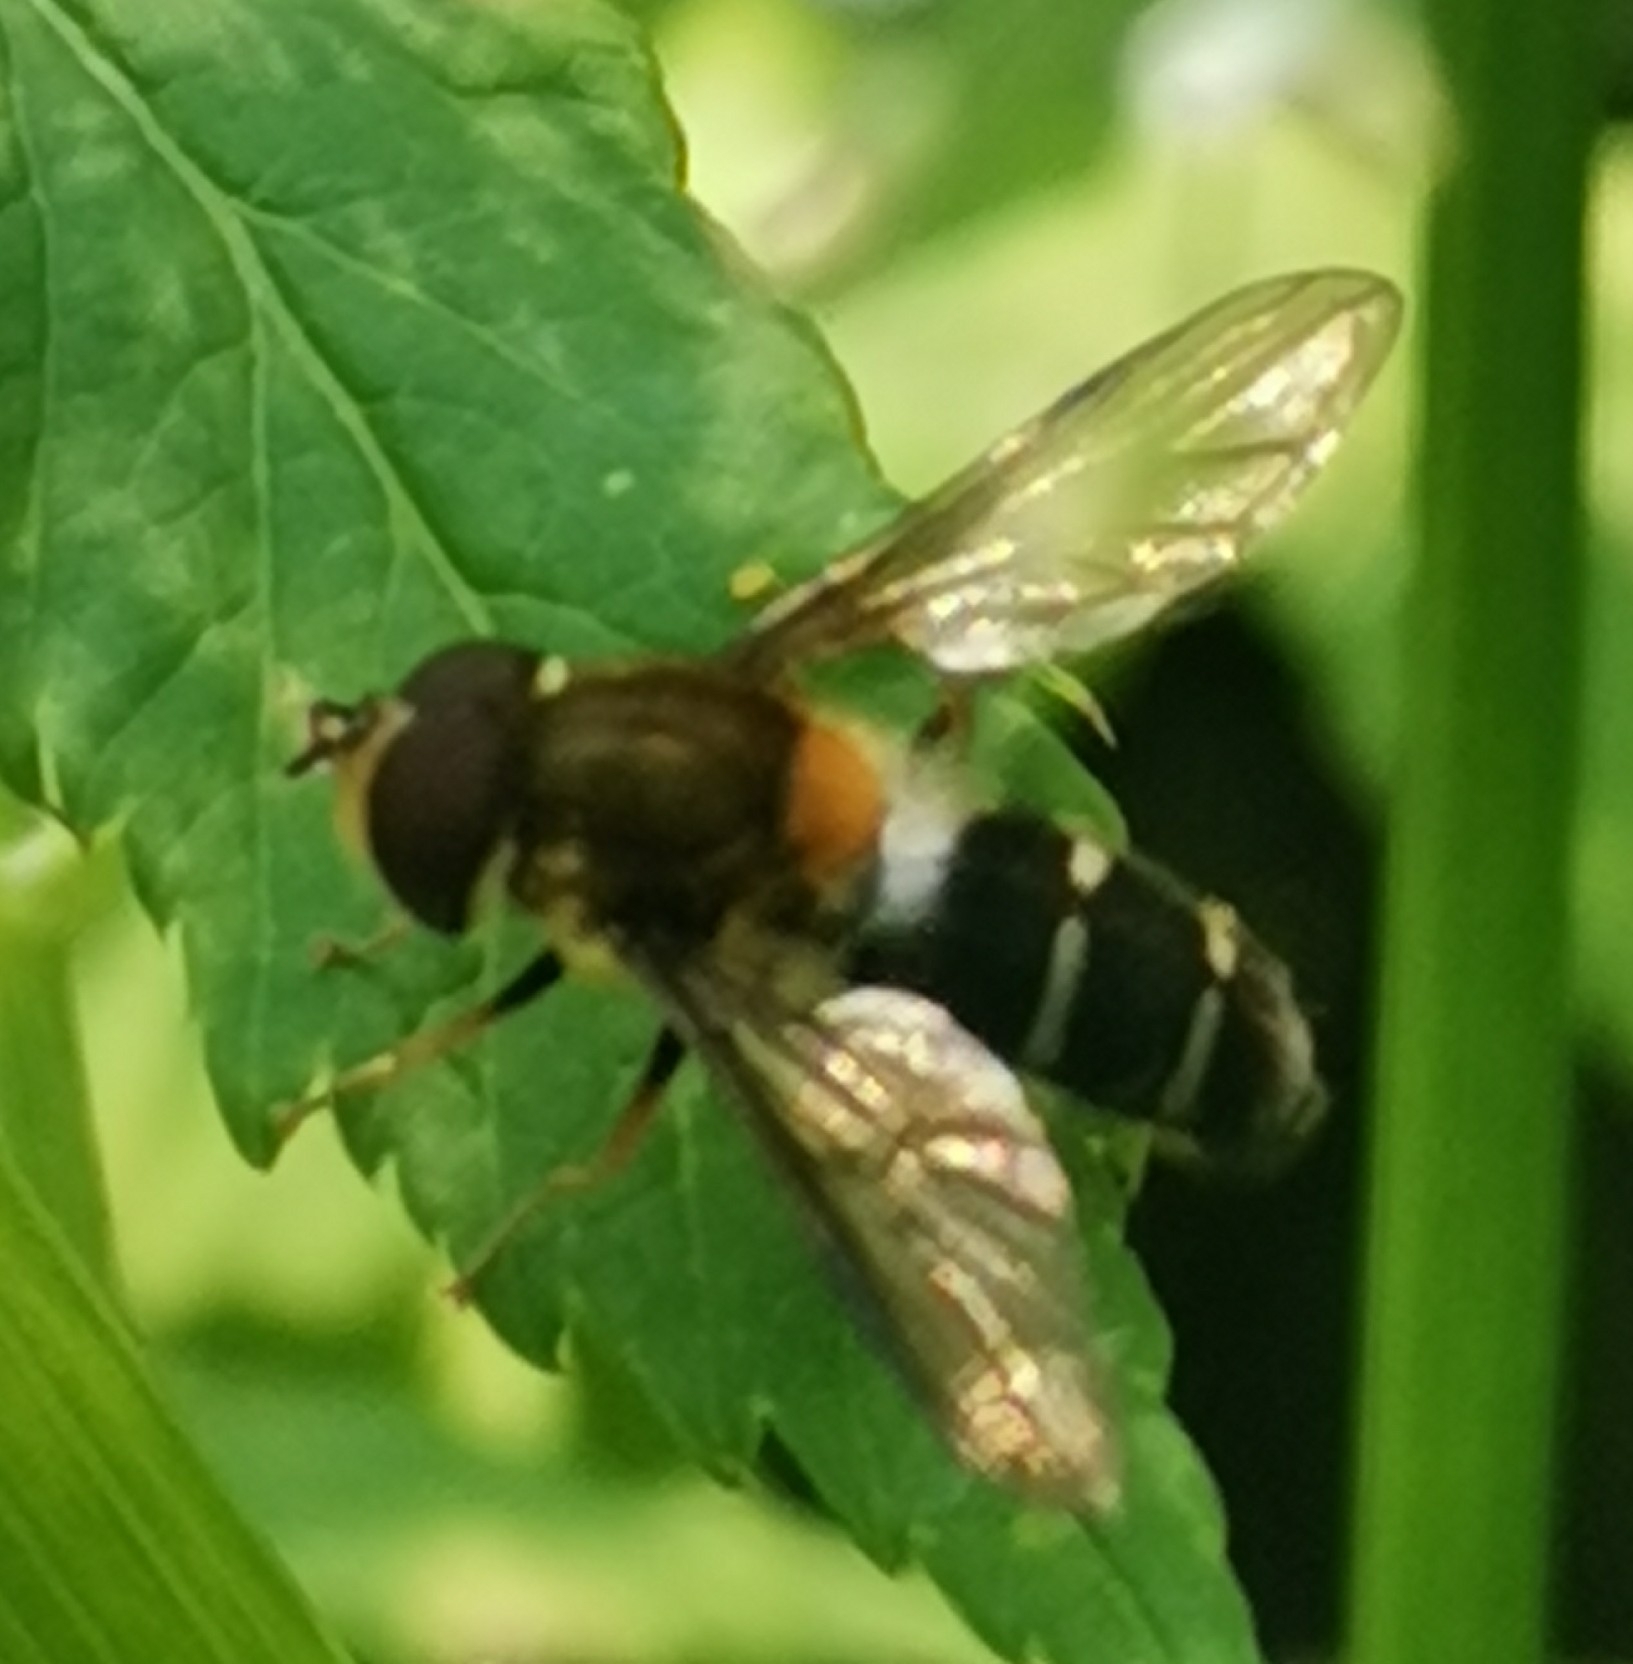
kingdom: Animalia
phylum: Arthropoda
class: Insecta
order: Diptera
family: Syrphidae
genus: Leucozona
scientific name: Leucozona glaucia
